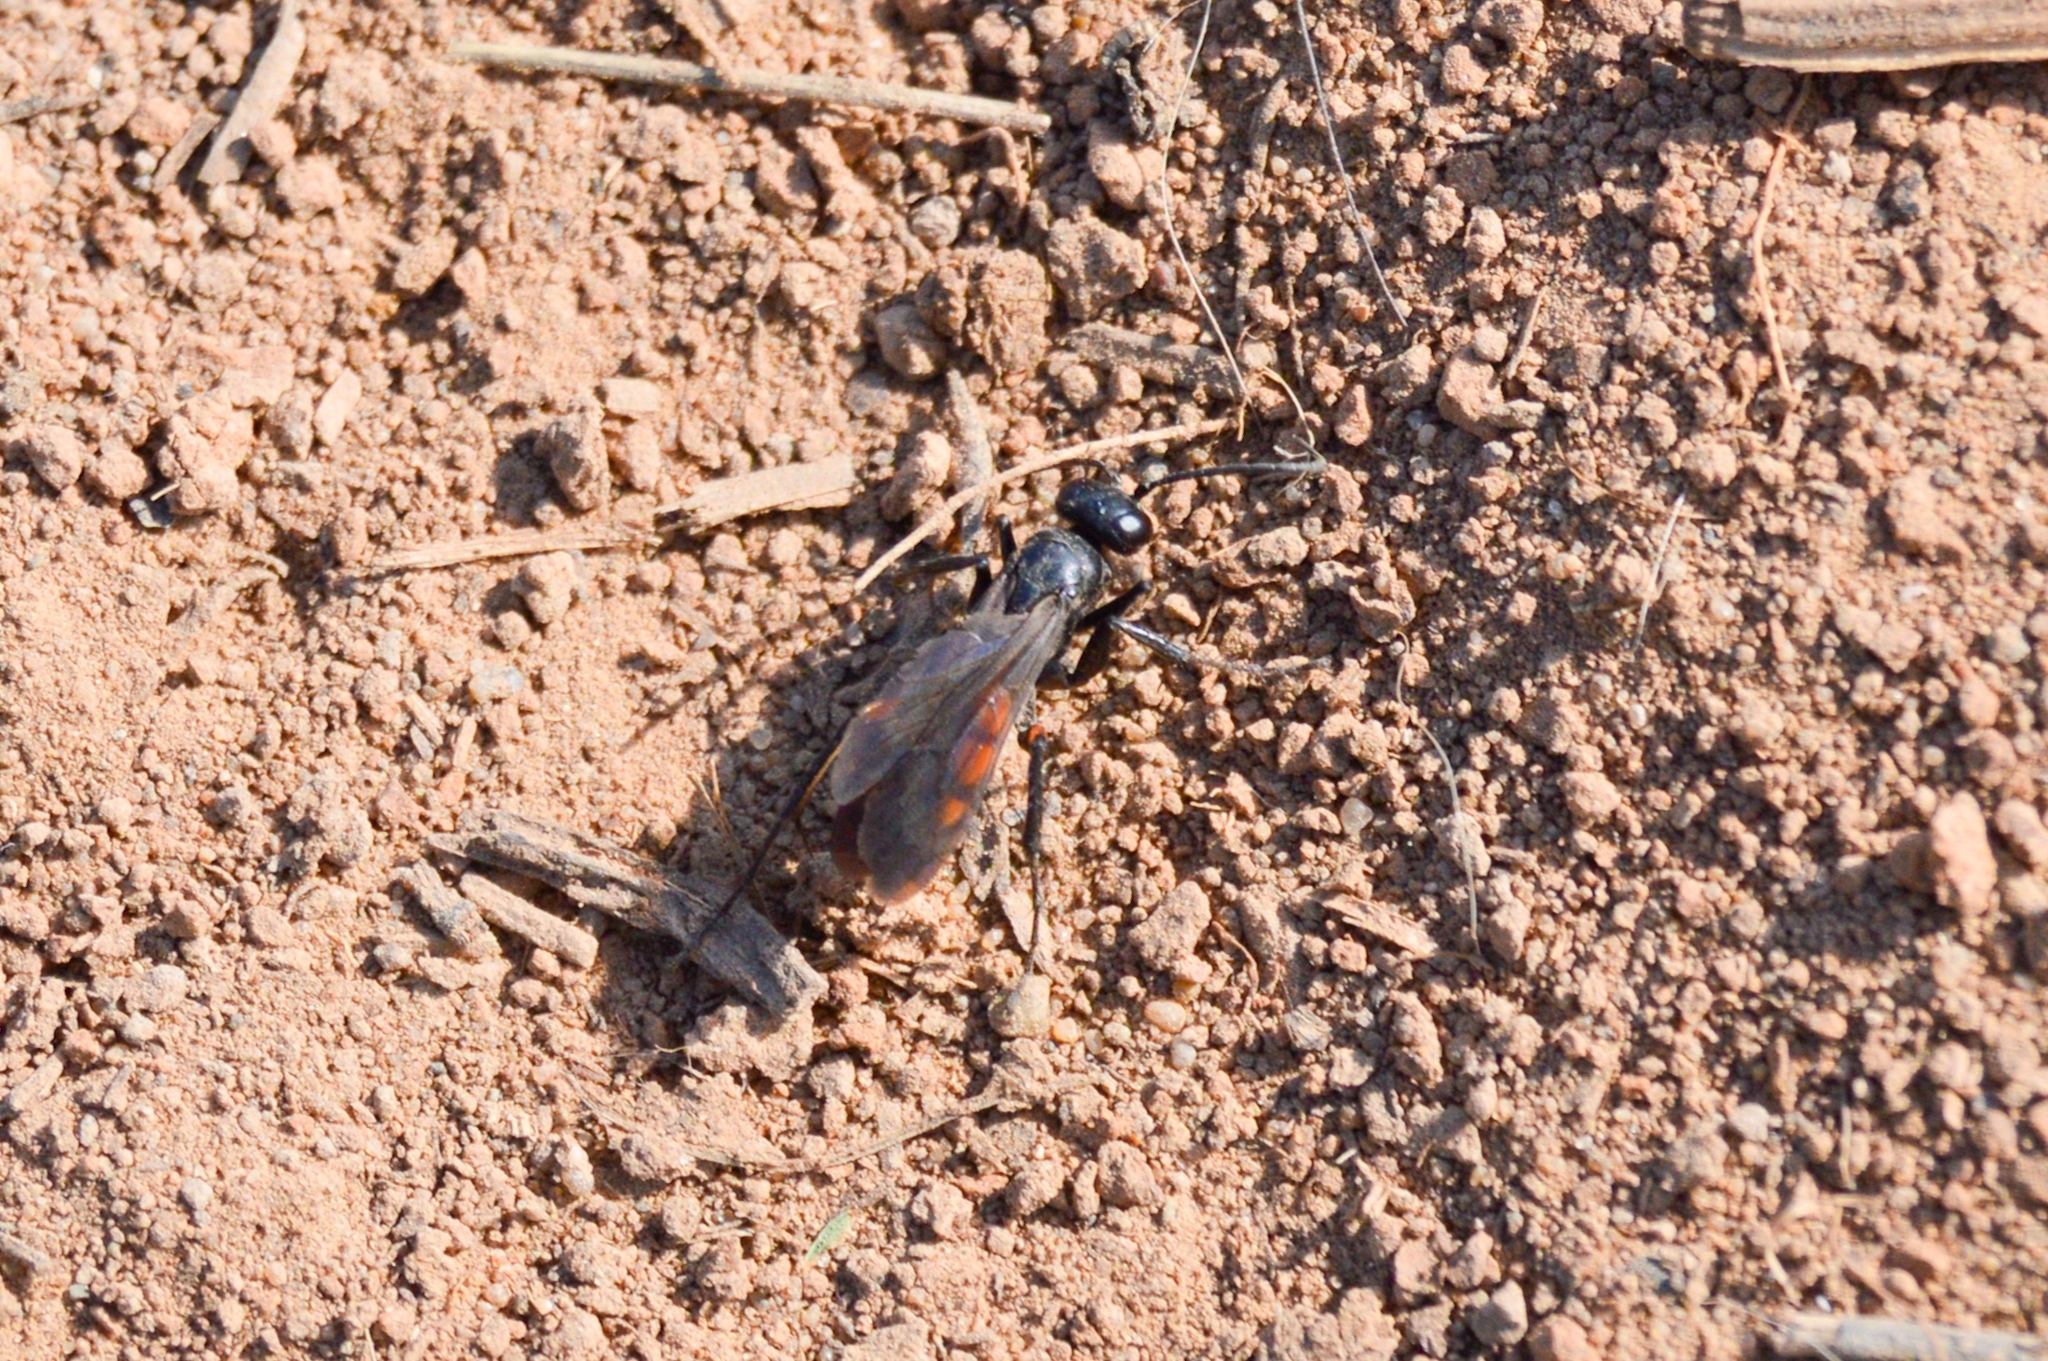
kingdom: Animalia
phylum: Arthropoda
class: Insecta
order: Hymenoptera
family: Pompilidae
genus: Anoplius
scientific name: Anoplius viaticus
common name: Black banded spider wasp
